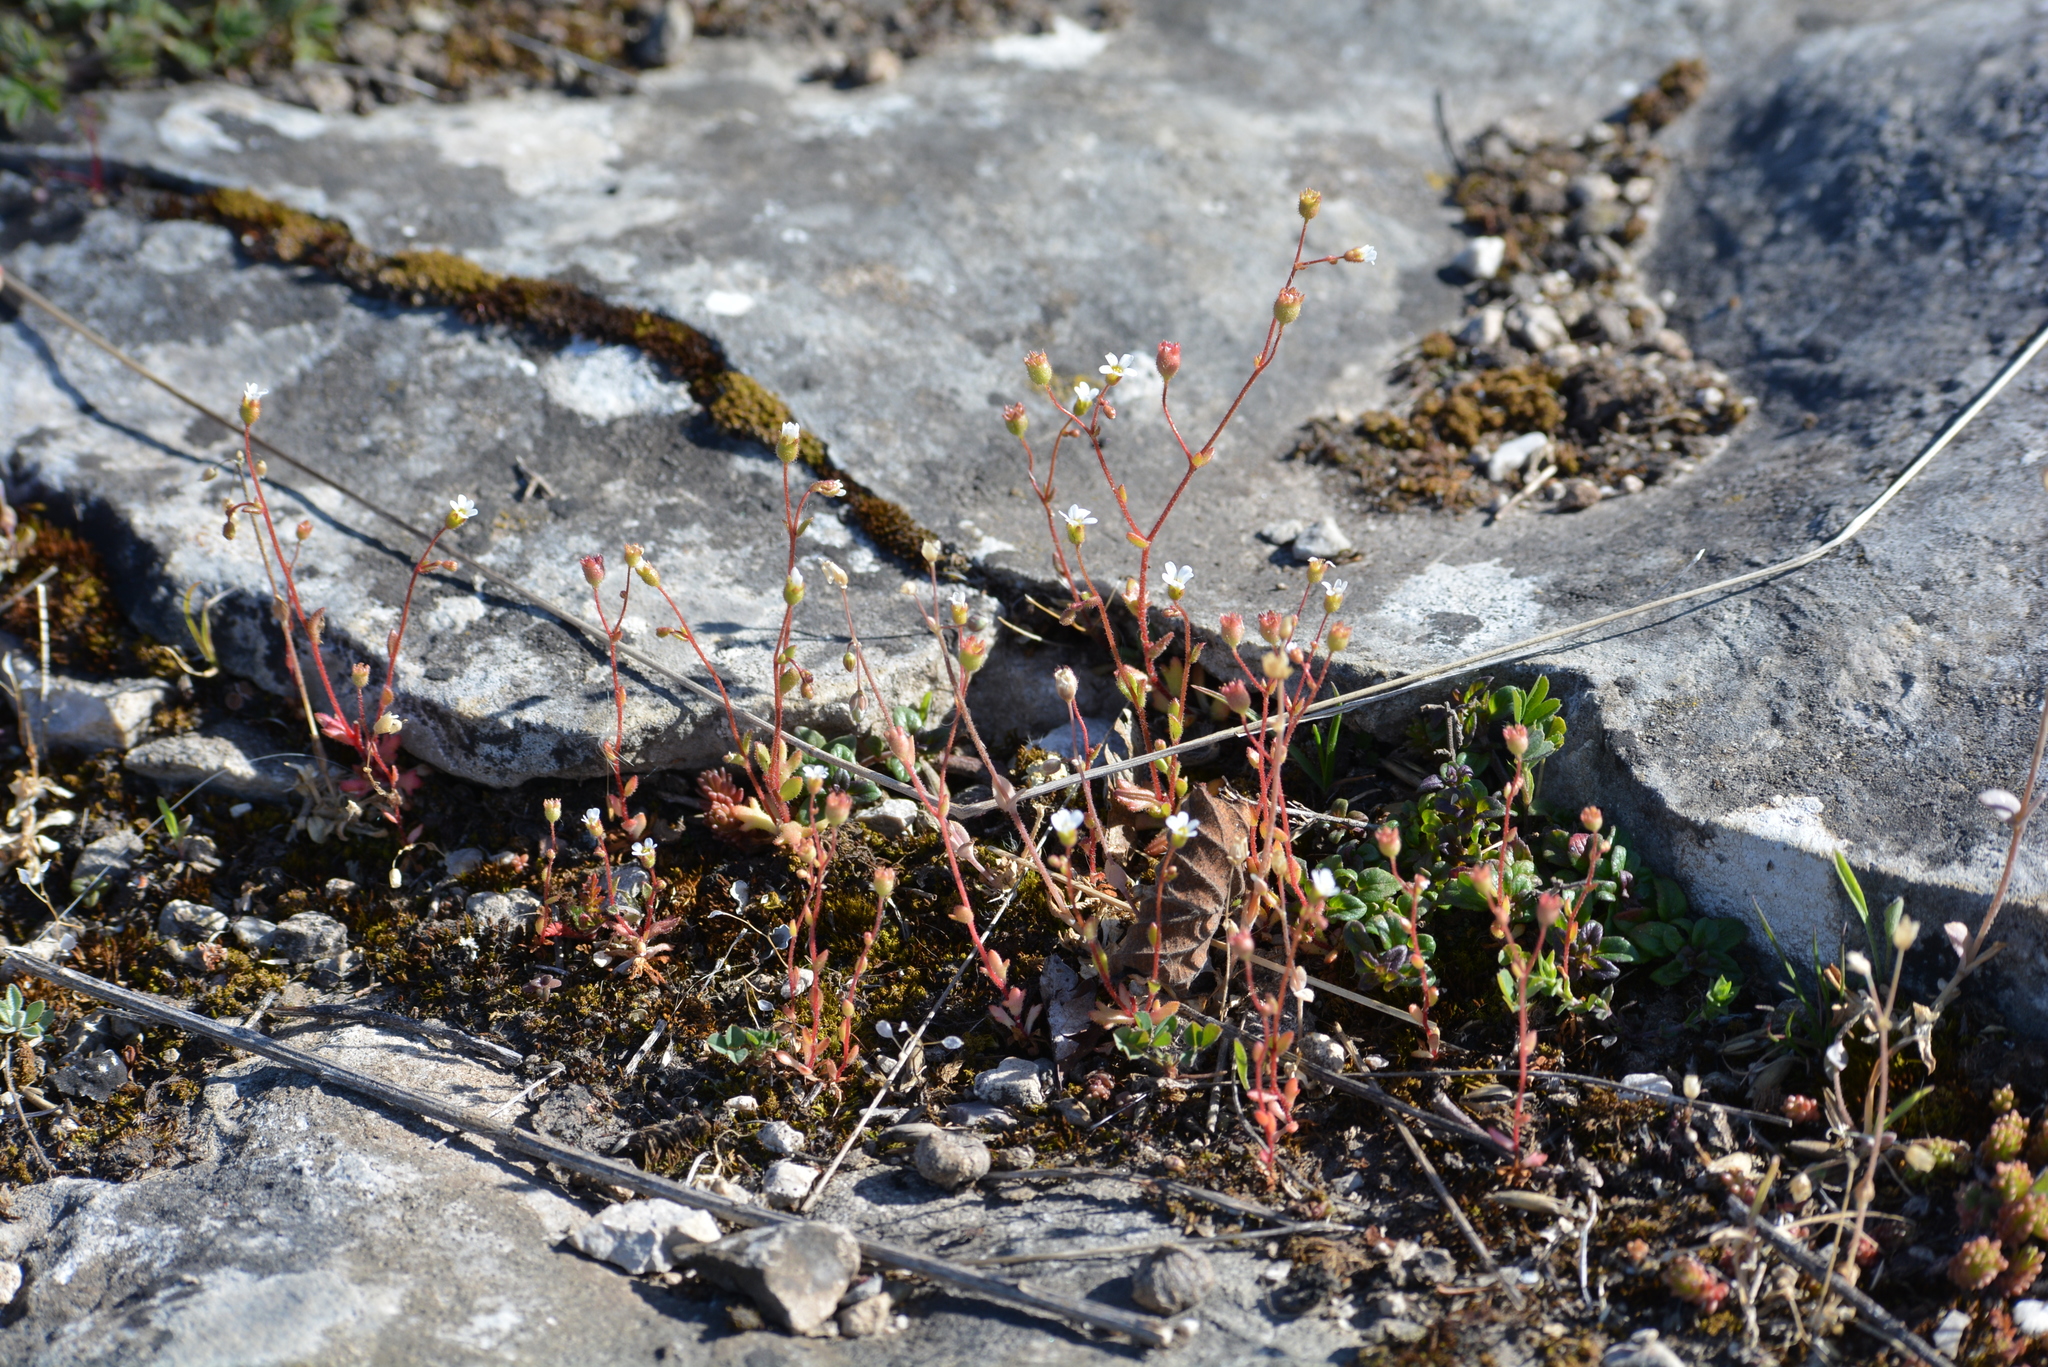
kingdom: Plantae
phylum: Tracheophyta
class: Magnoliopsida
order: Saxifragales
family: Saxifragaceae
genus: Saxifraga
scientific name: Saxifraga tridactylites
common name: Rue-leaved saxifrage
